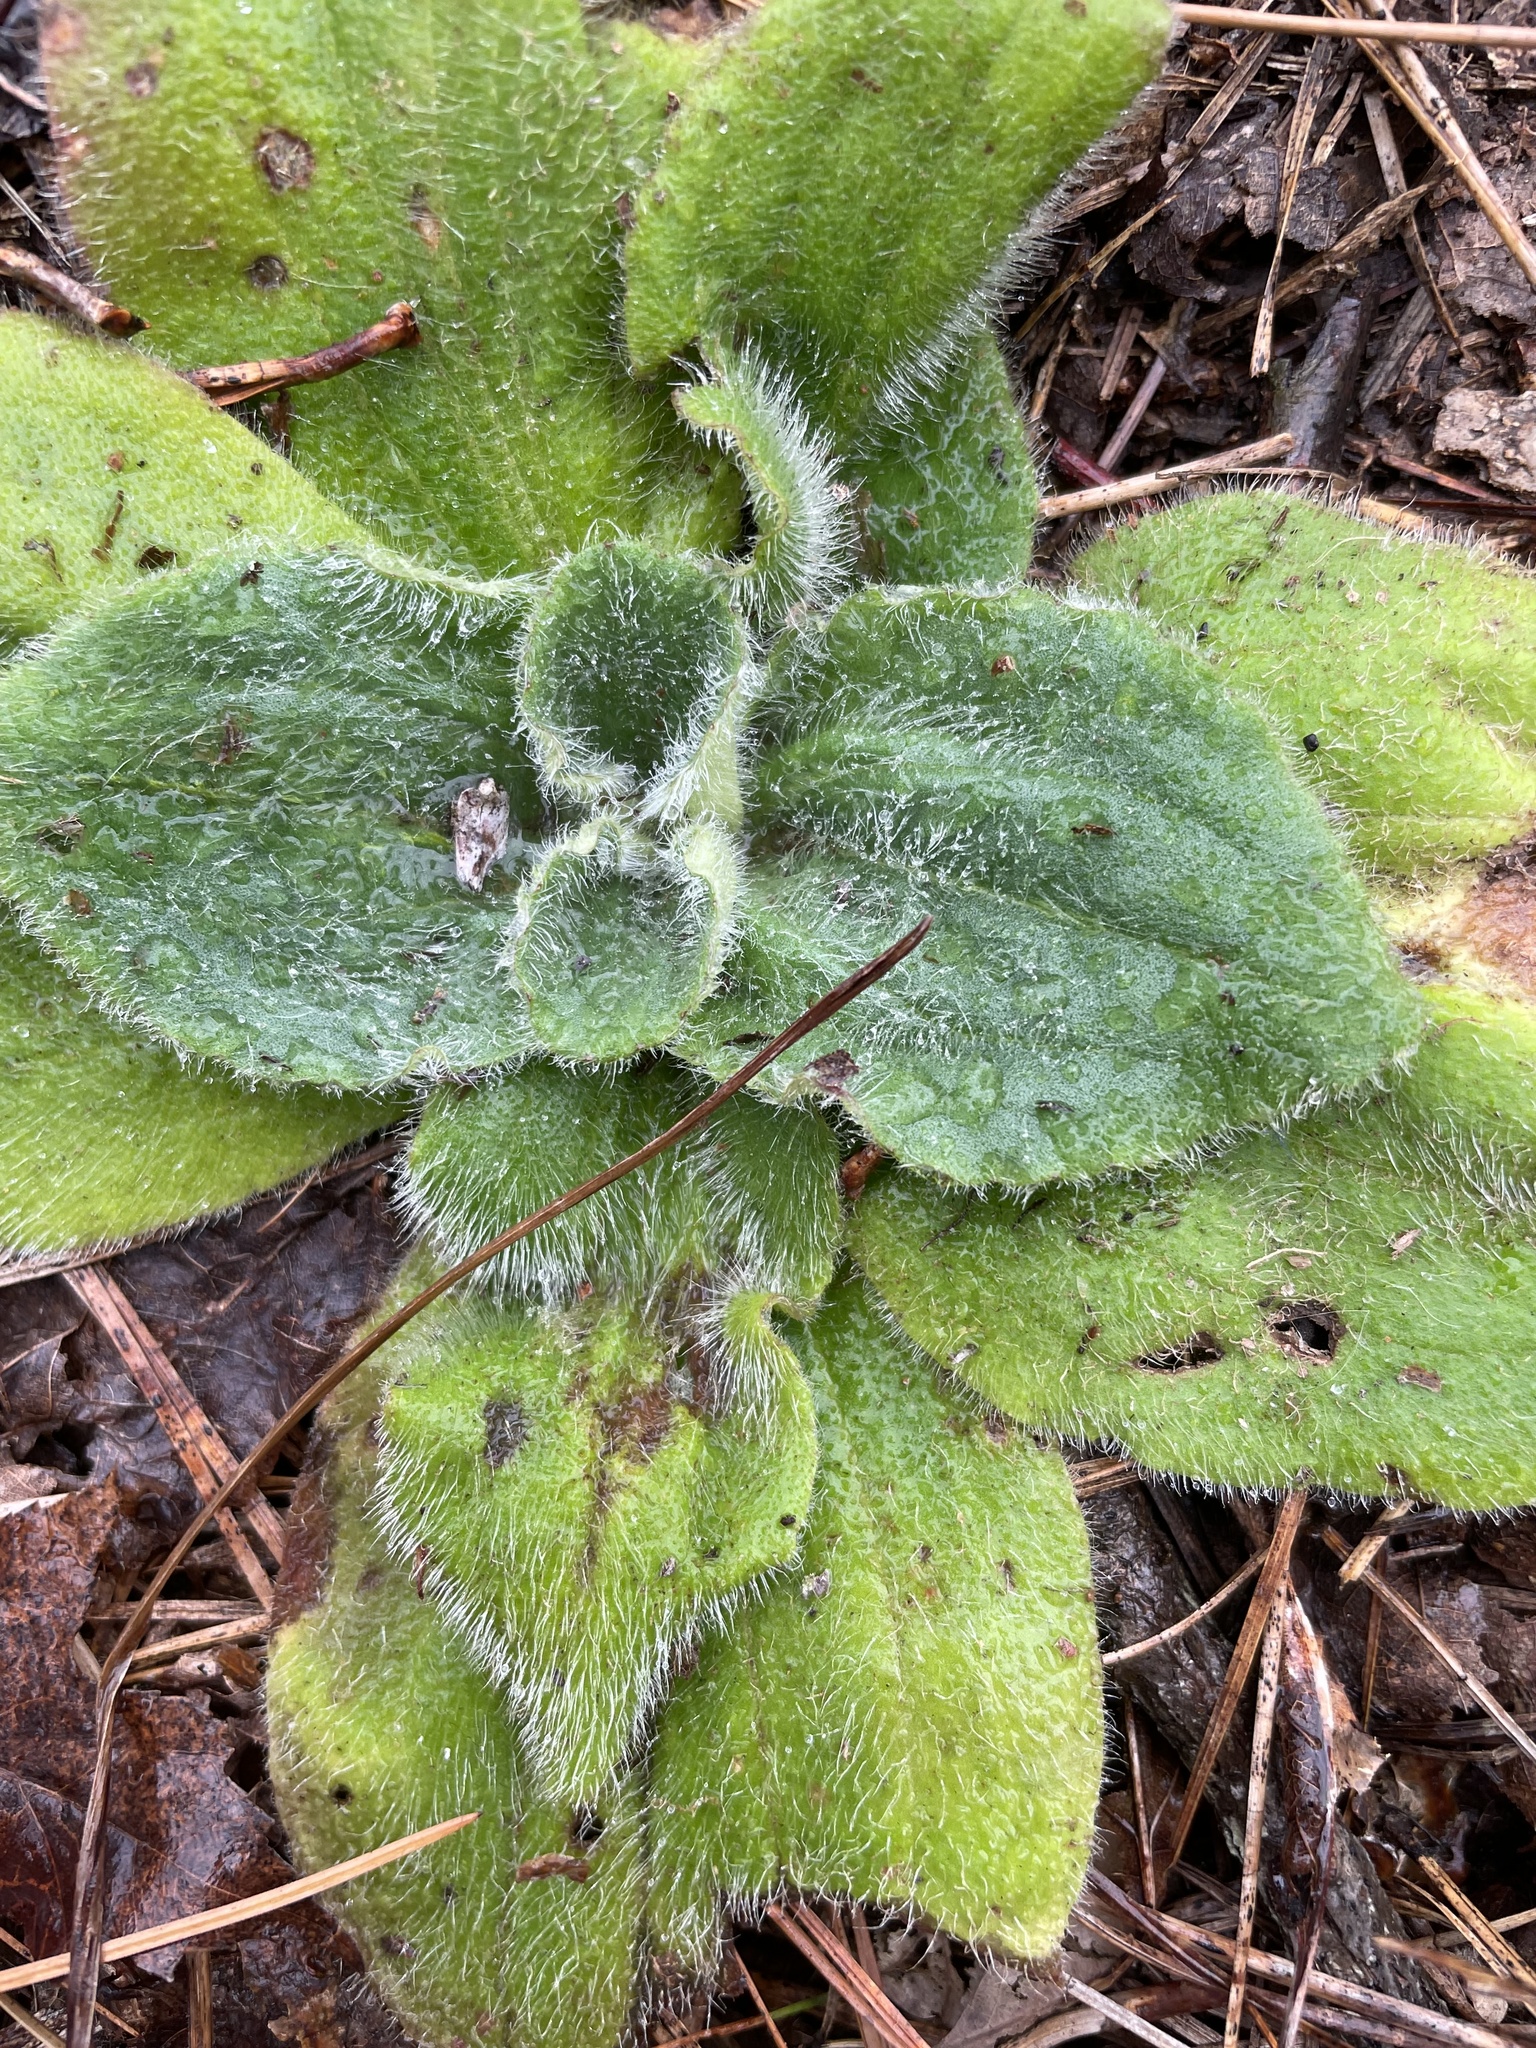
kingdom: Plantae
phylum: Tracheophyta
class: Magnoliopsida
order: Asterales
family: Asteraceae
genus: Arnica
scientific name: Arnica acaulis
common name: Common leopardbane
